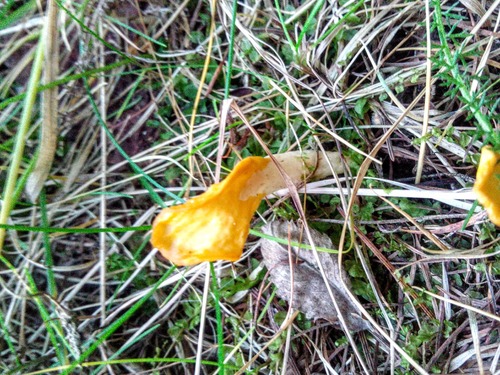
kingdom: Fungi
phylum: Ascomycota
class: Leotiomycetes
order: Rhytismatales
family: Cudoniaceae
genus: Spathularia
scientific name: Spathularia flavida
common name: Yellow fan
